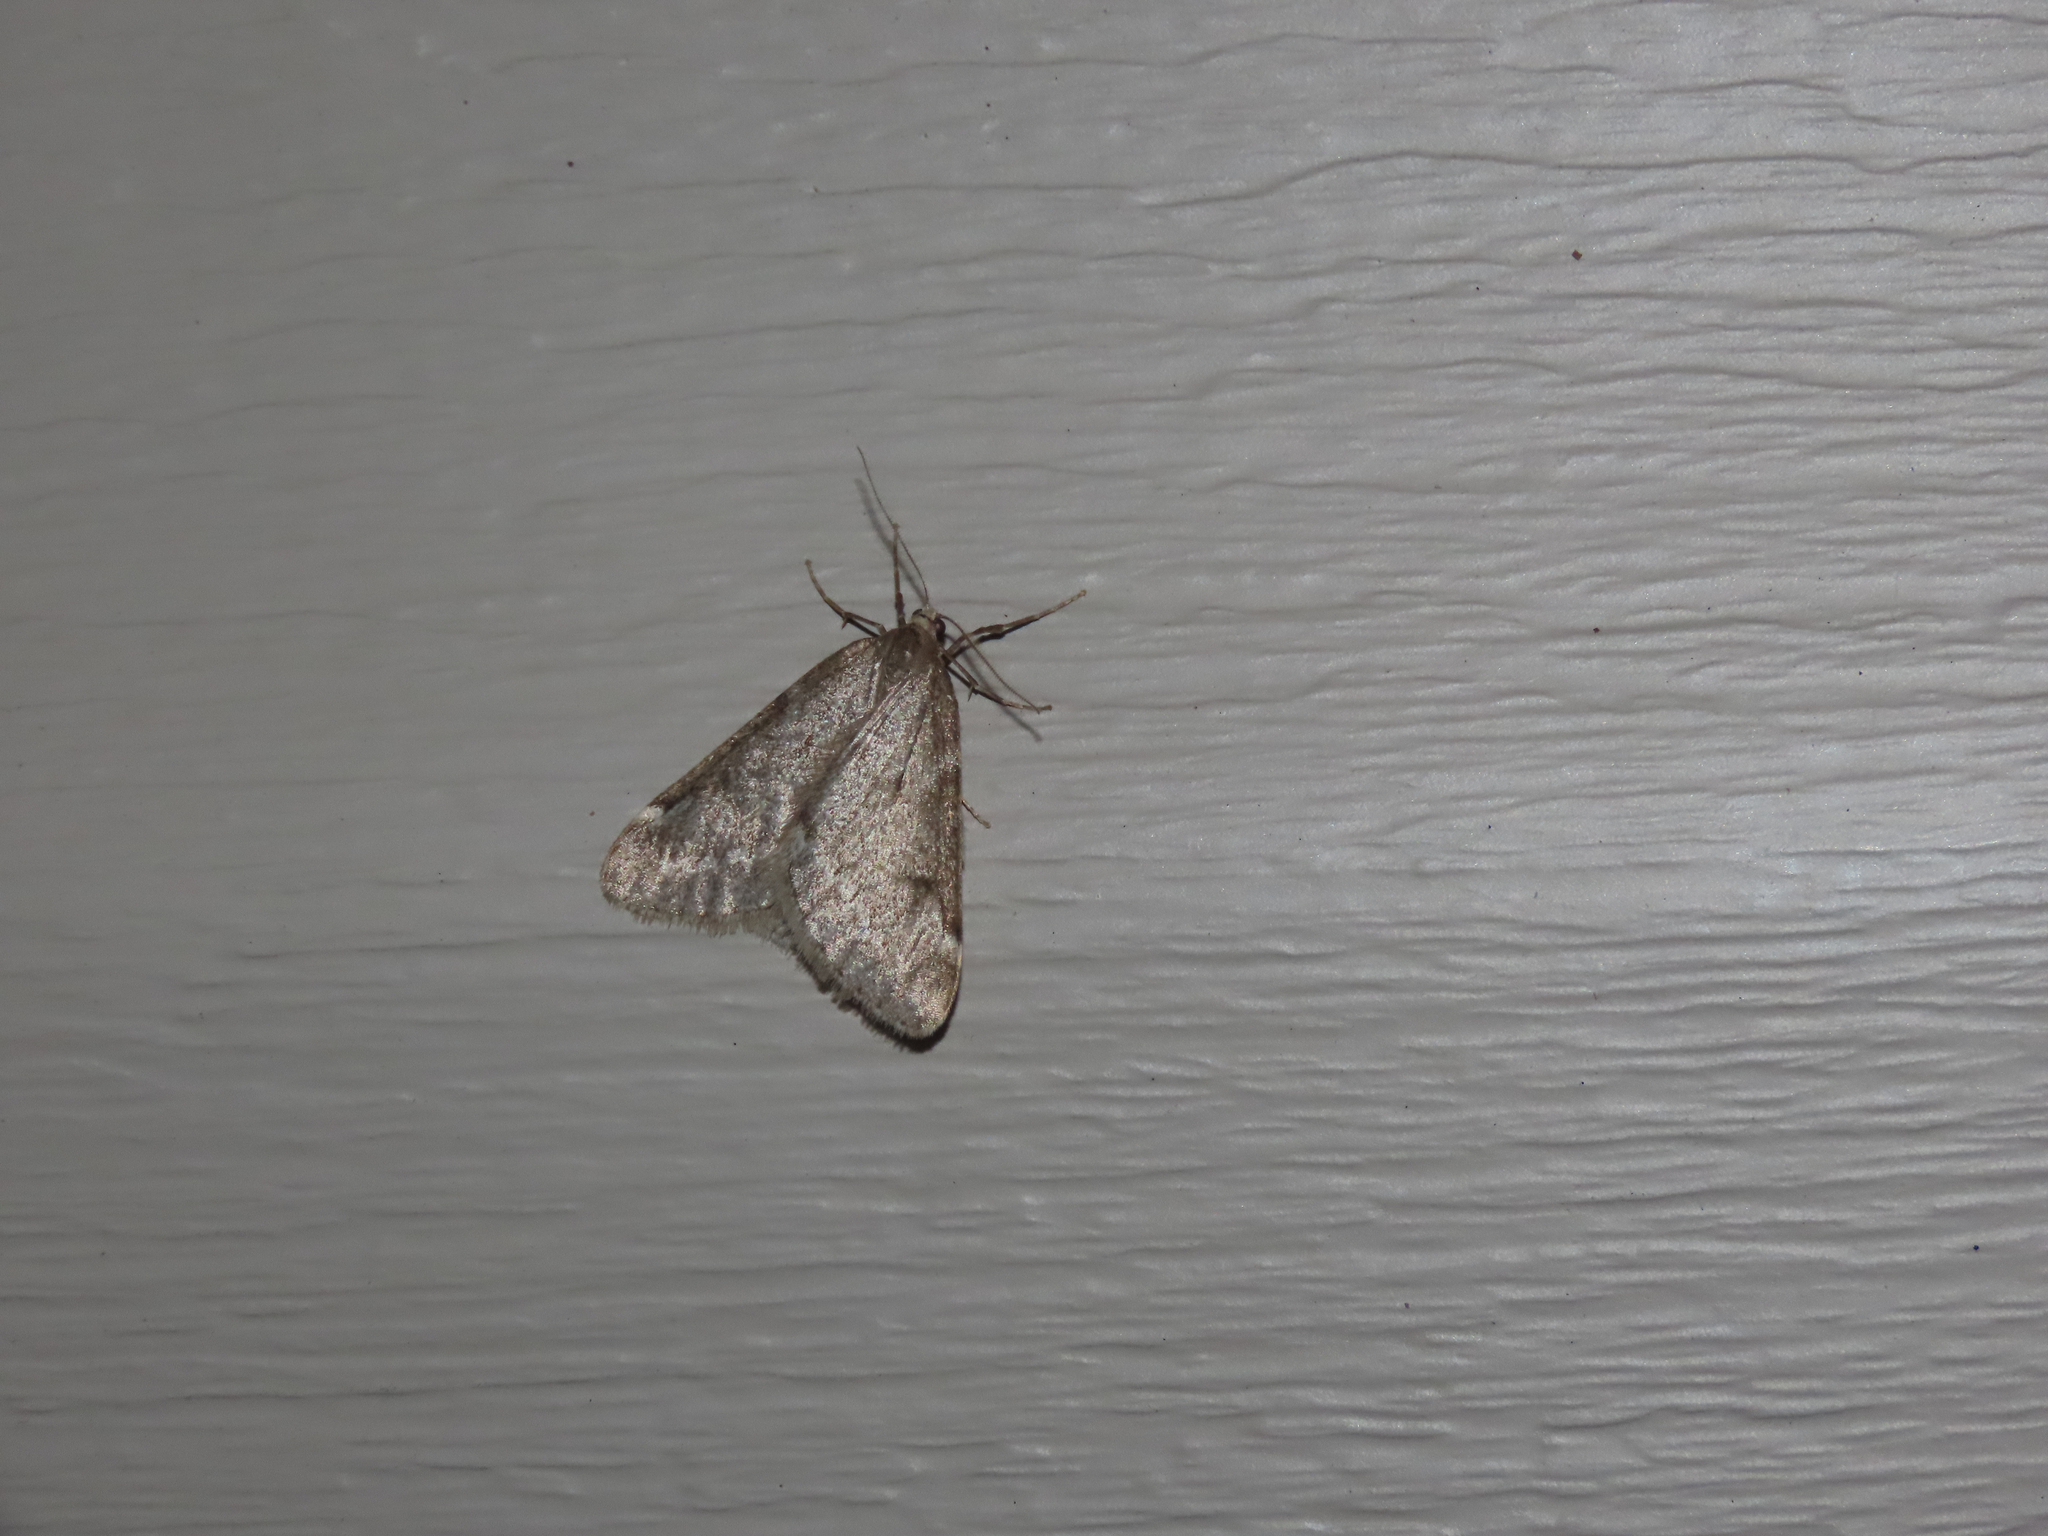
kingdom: Animalia
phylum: Arthropoda
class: Insecta
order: Lepidoptera
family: Geometridae
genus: Alsophila
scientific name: Alsophila pometaria
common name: Fall cankerworm
